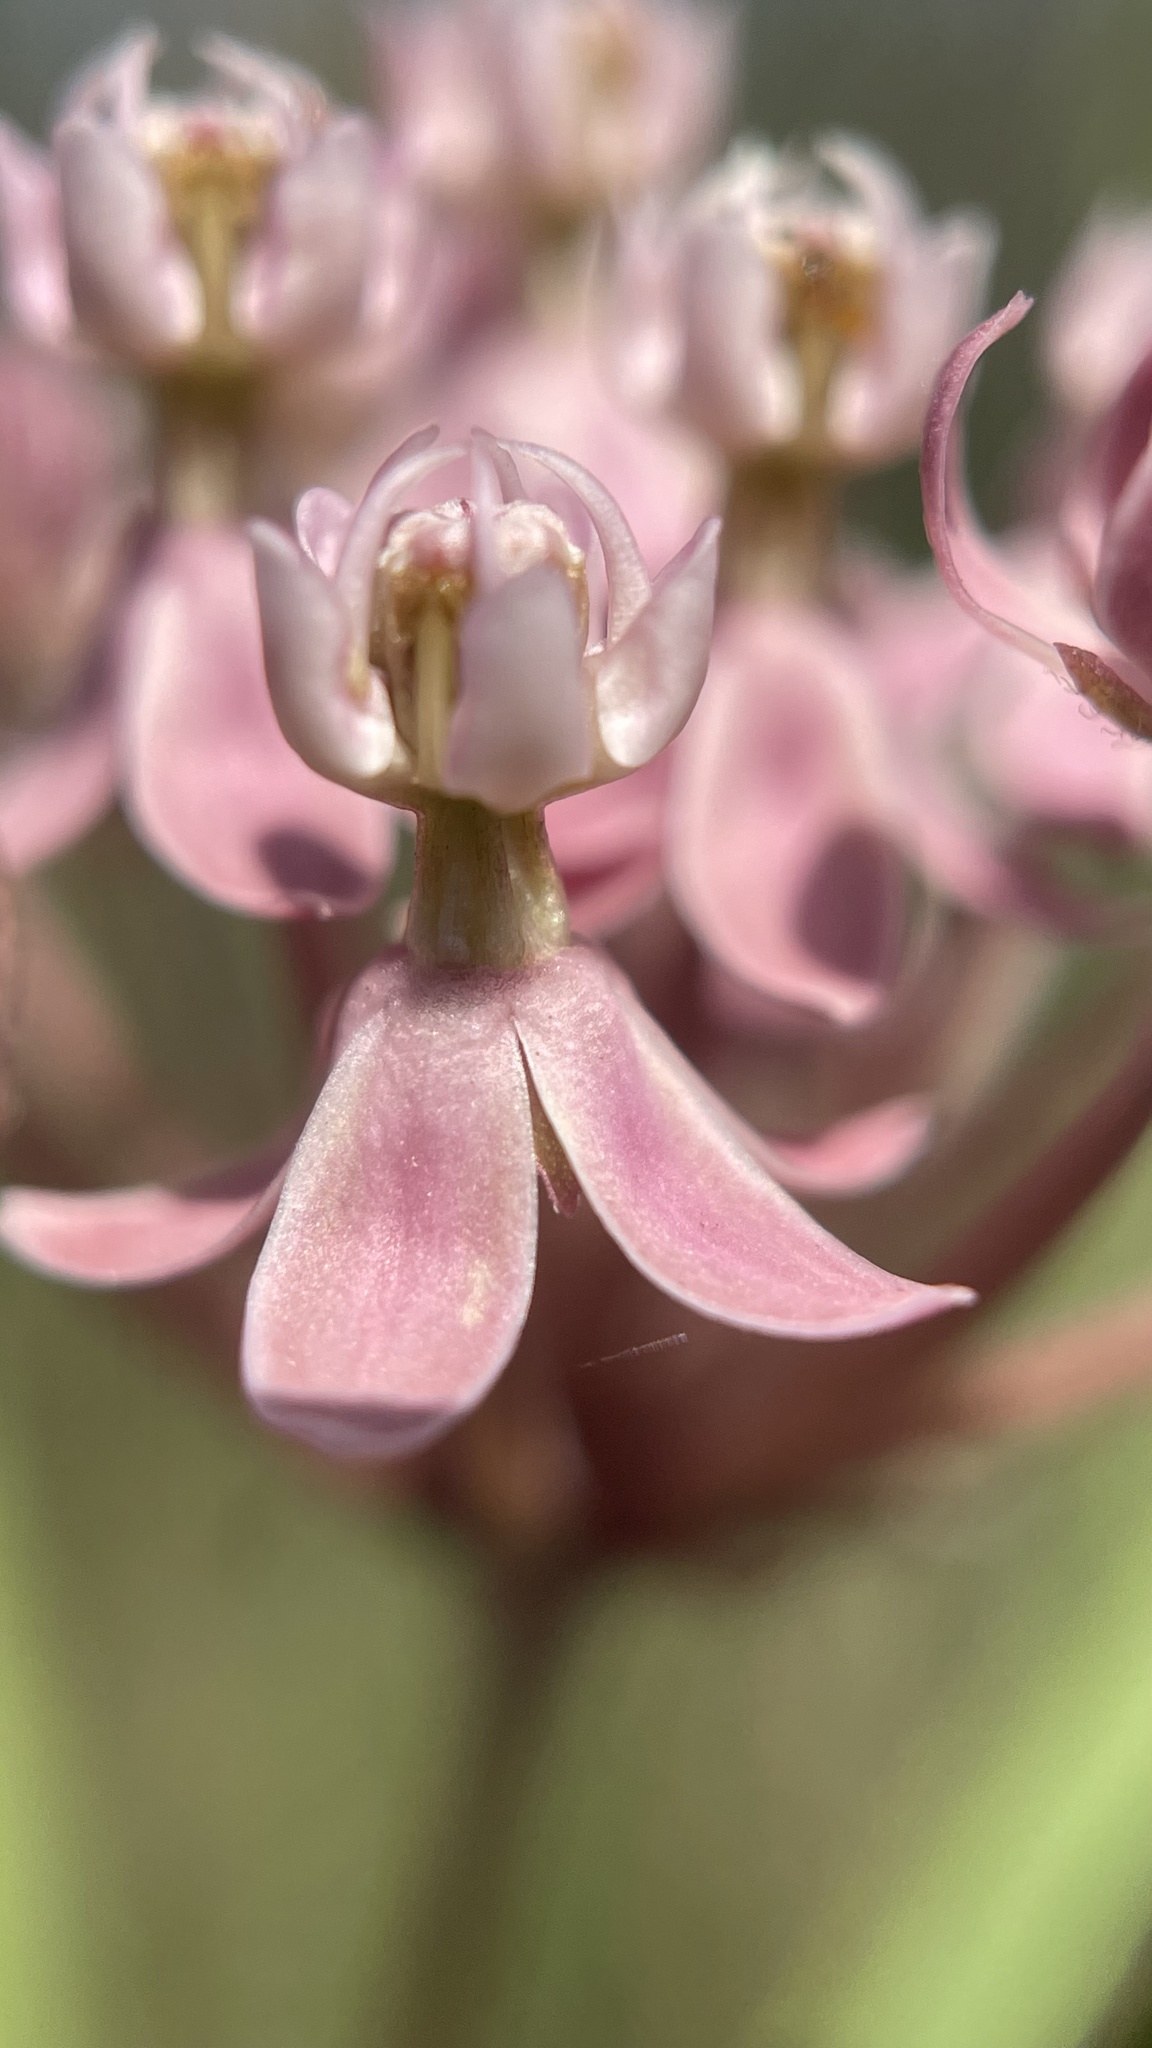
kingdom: Plantae
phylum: Tracheophyta
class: Magnoliopsida
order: Gentianales
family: Apocynaceae
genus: Asclepias
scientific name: Asclepias incarnata
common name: Swamp milkweed
